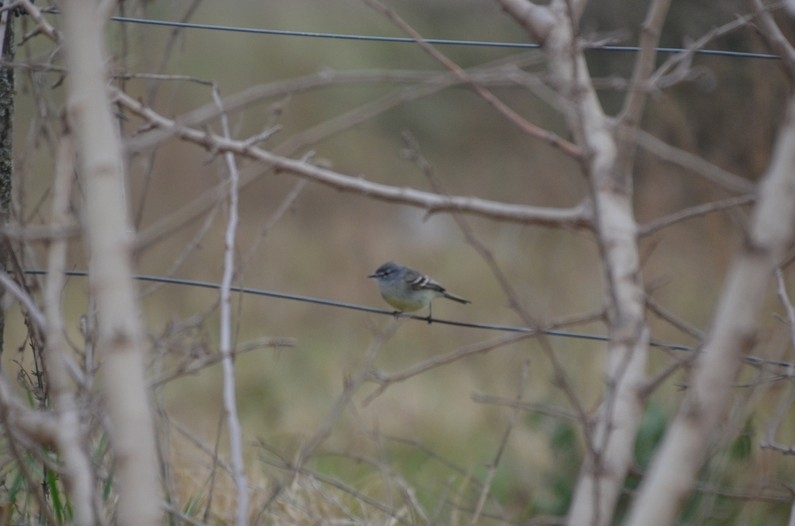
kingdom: Animalia
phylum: Chordata
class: Aves
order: Passeriformes
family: Tyrannidae
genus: Serpophaga
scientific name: Serpophaga subcristata
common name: White-crested tyrannulet
